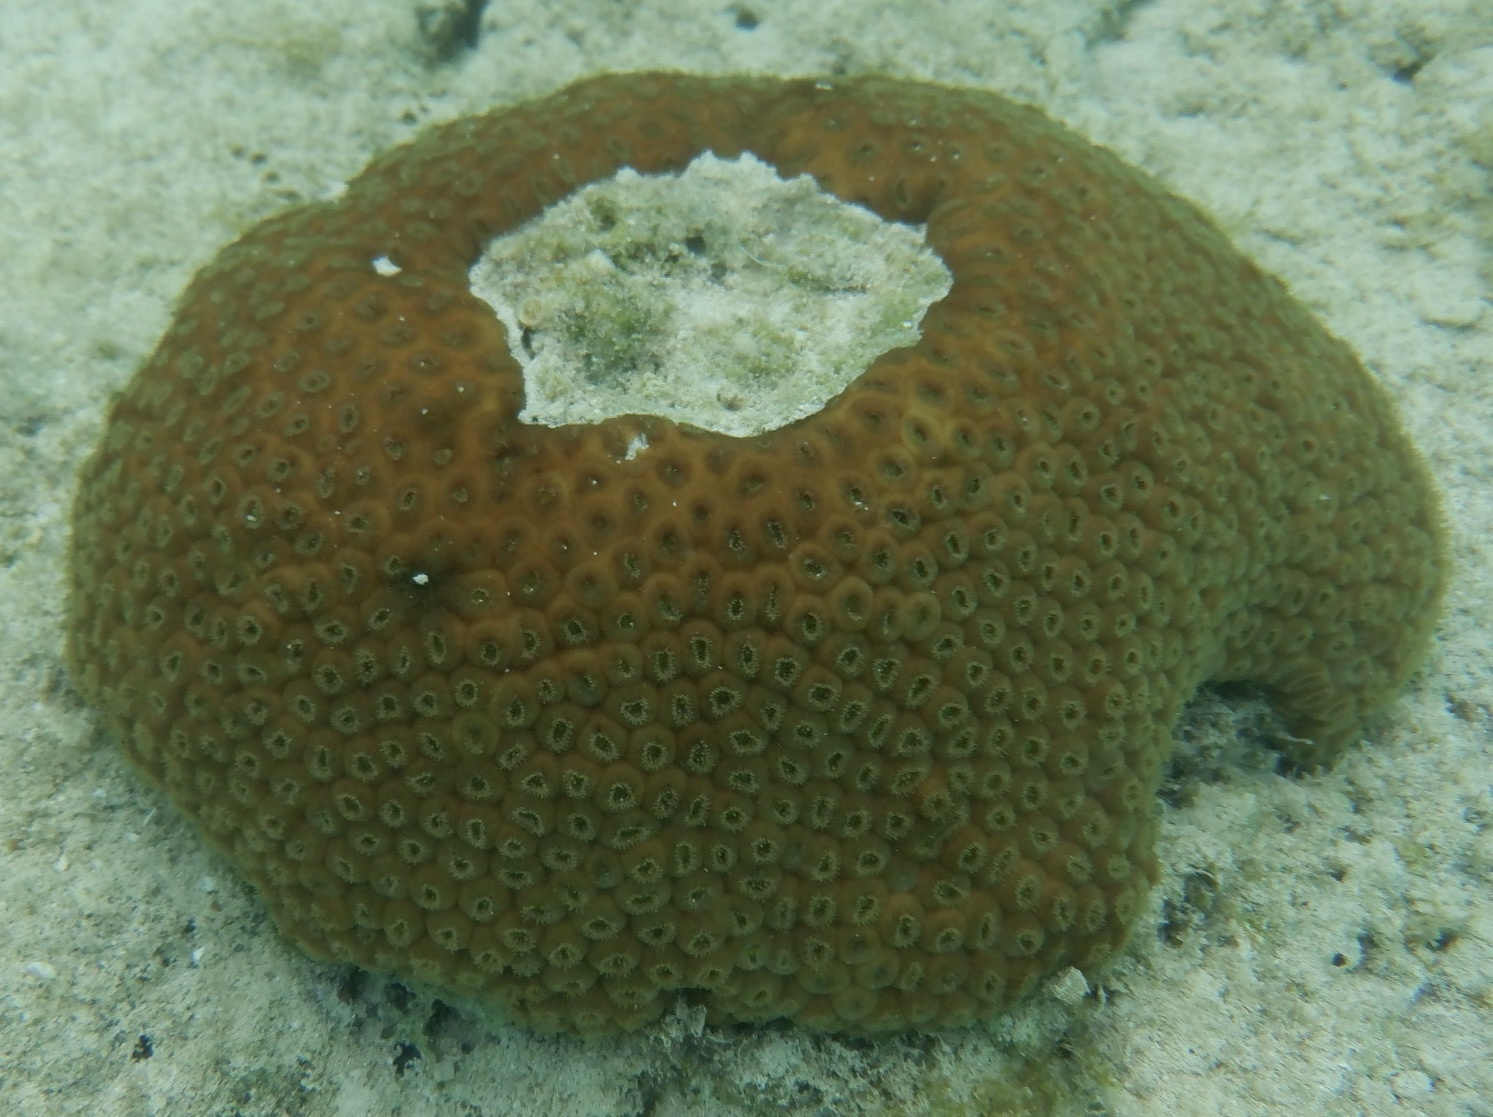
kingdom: Animalia
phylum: Cnidaria
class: Anthozoa
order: Scleractinia
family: Montastraeidae
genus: Montastraea
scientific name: Montastraea cavernosa
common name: Great star coral
